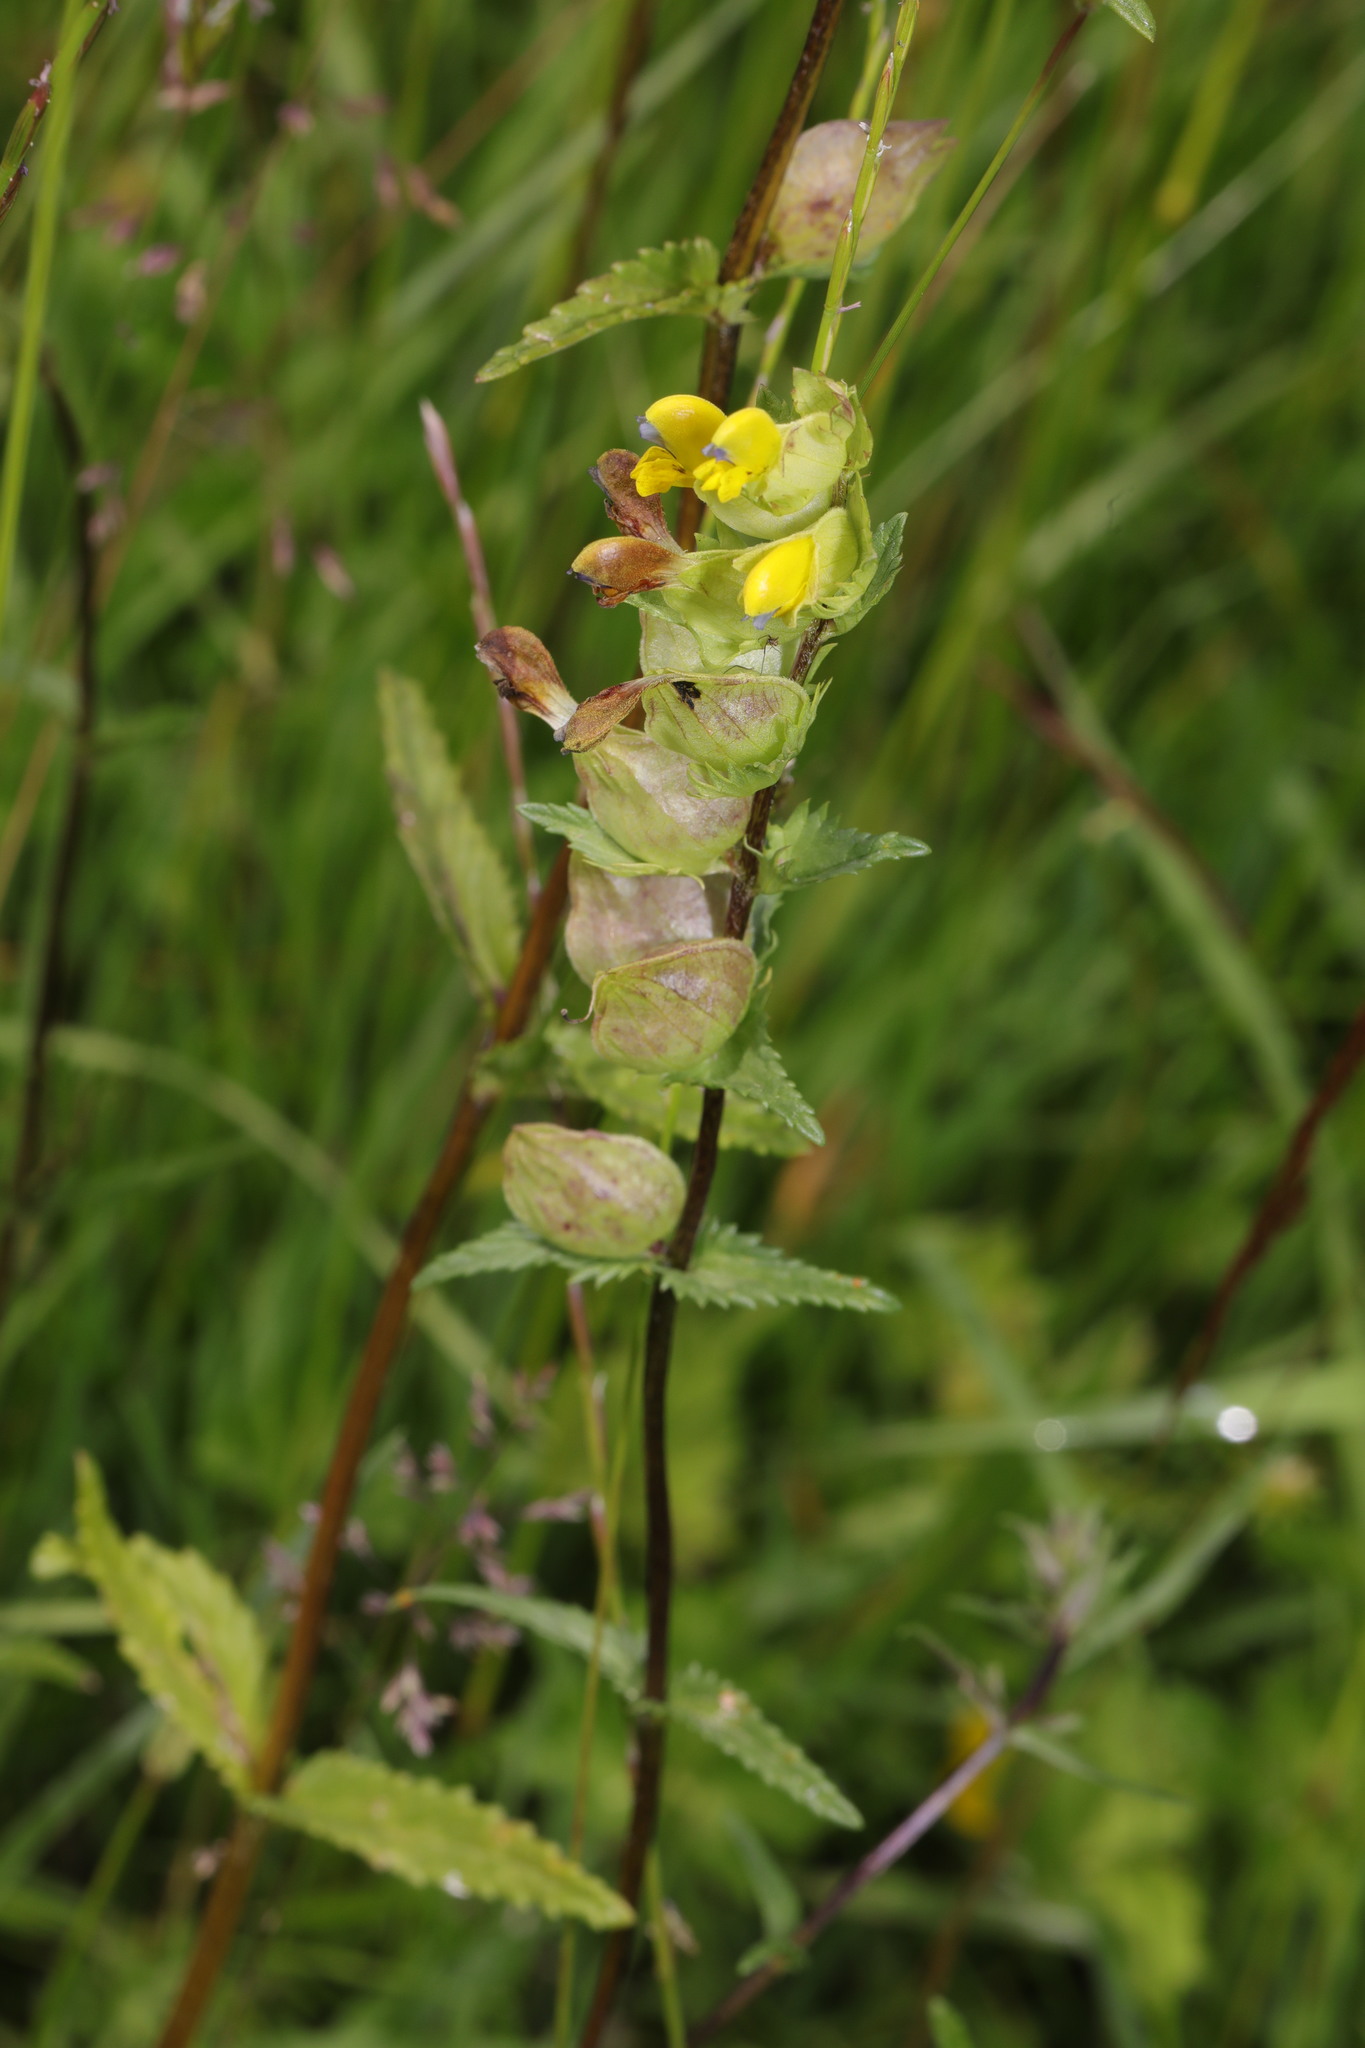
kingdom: Plantae
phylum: Tracheophyta
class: Magnoliopsida
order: Lamiales
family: Orobanchaceae
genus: Rhinanthus
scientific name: Rhinanthus minor
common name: Yellow-rattle
